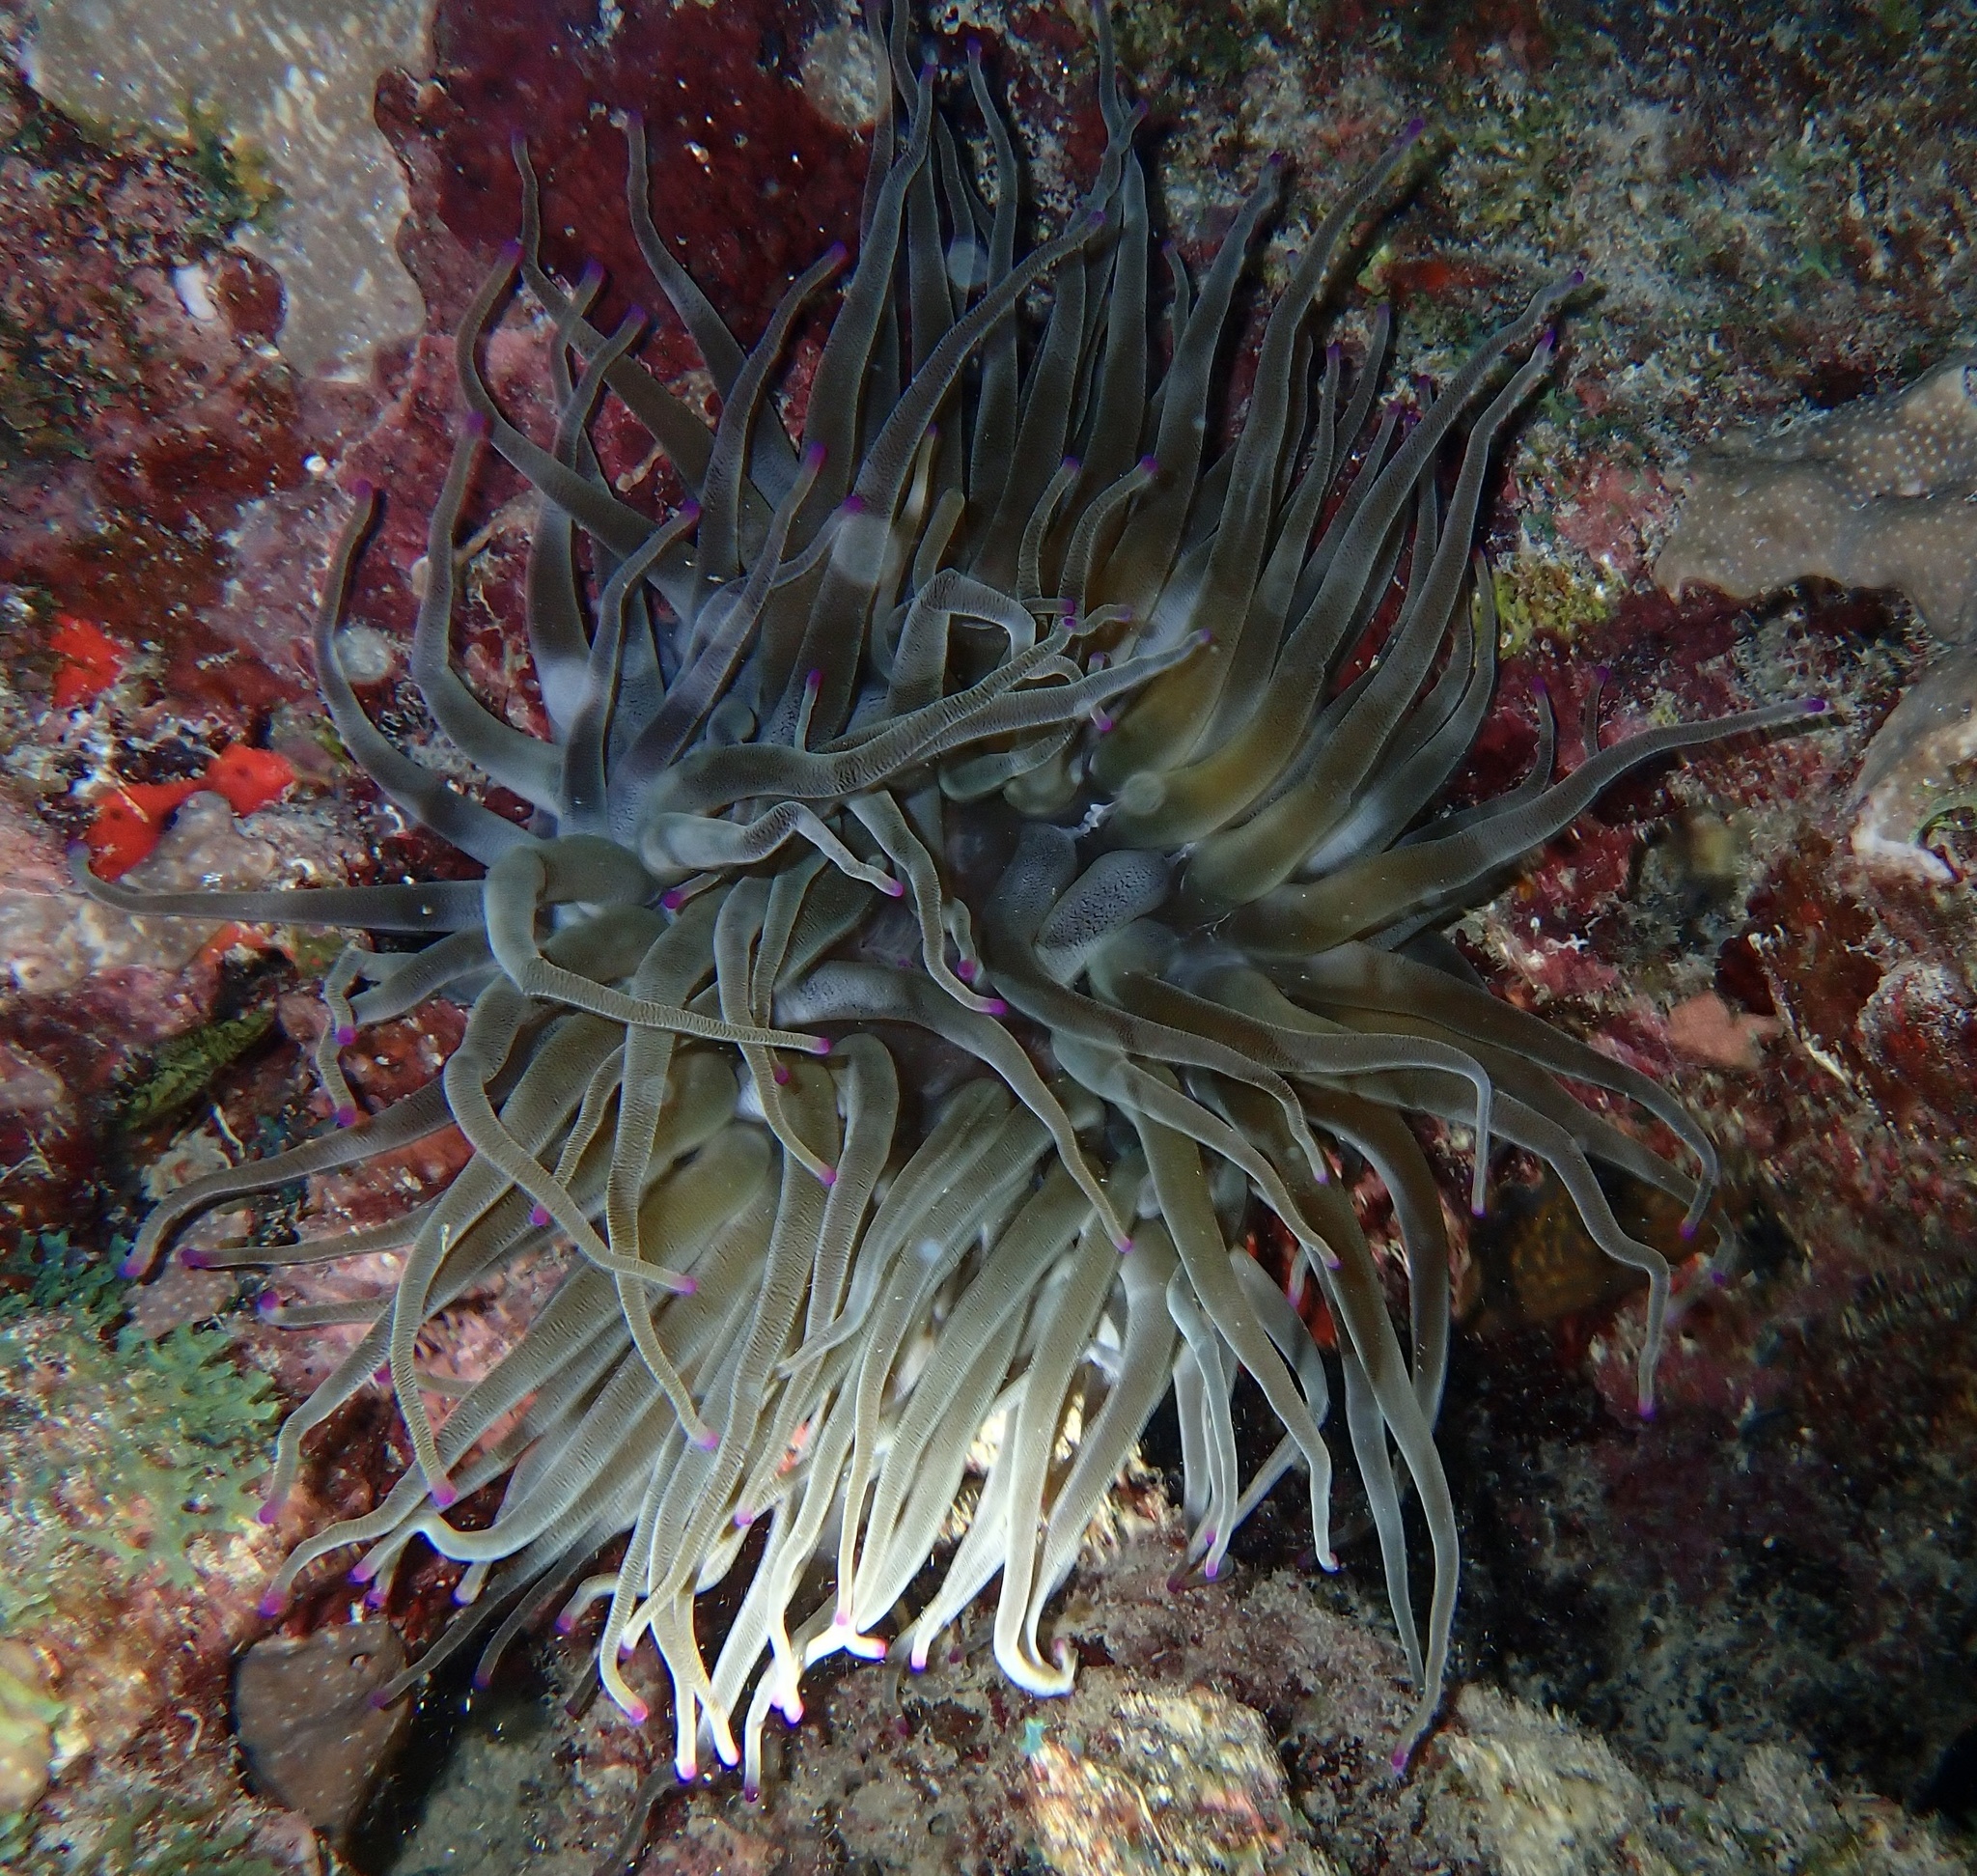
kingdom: Animalia
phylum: Cnidaria
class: Anthozoa
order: Actiniaria
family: Actiniidae
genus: Condylactis
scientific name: Condylactis gigantea
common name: Giant caribbean anemone
